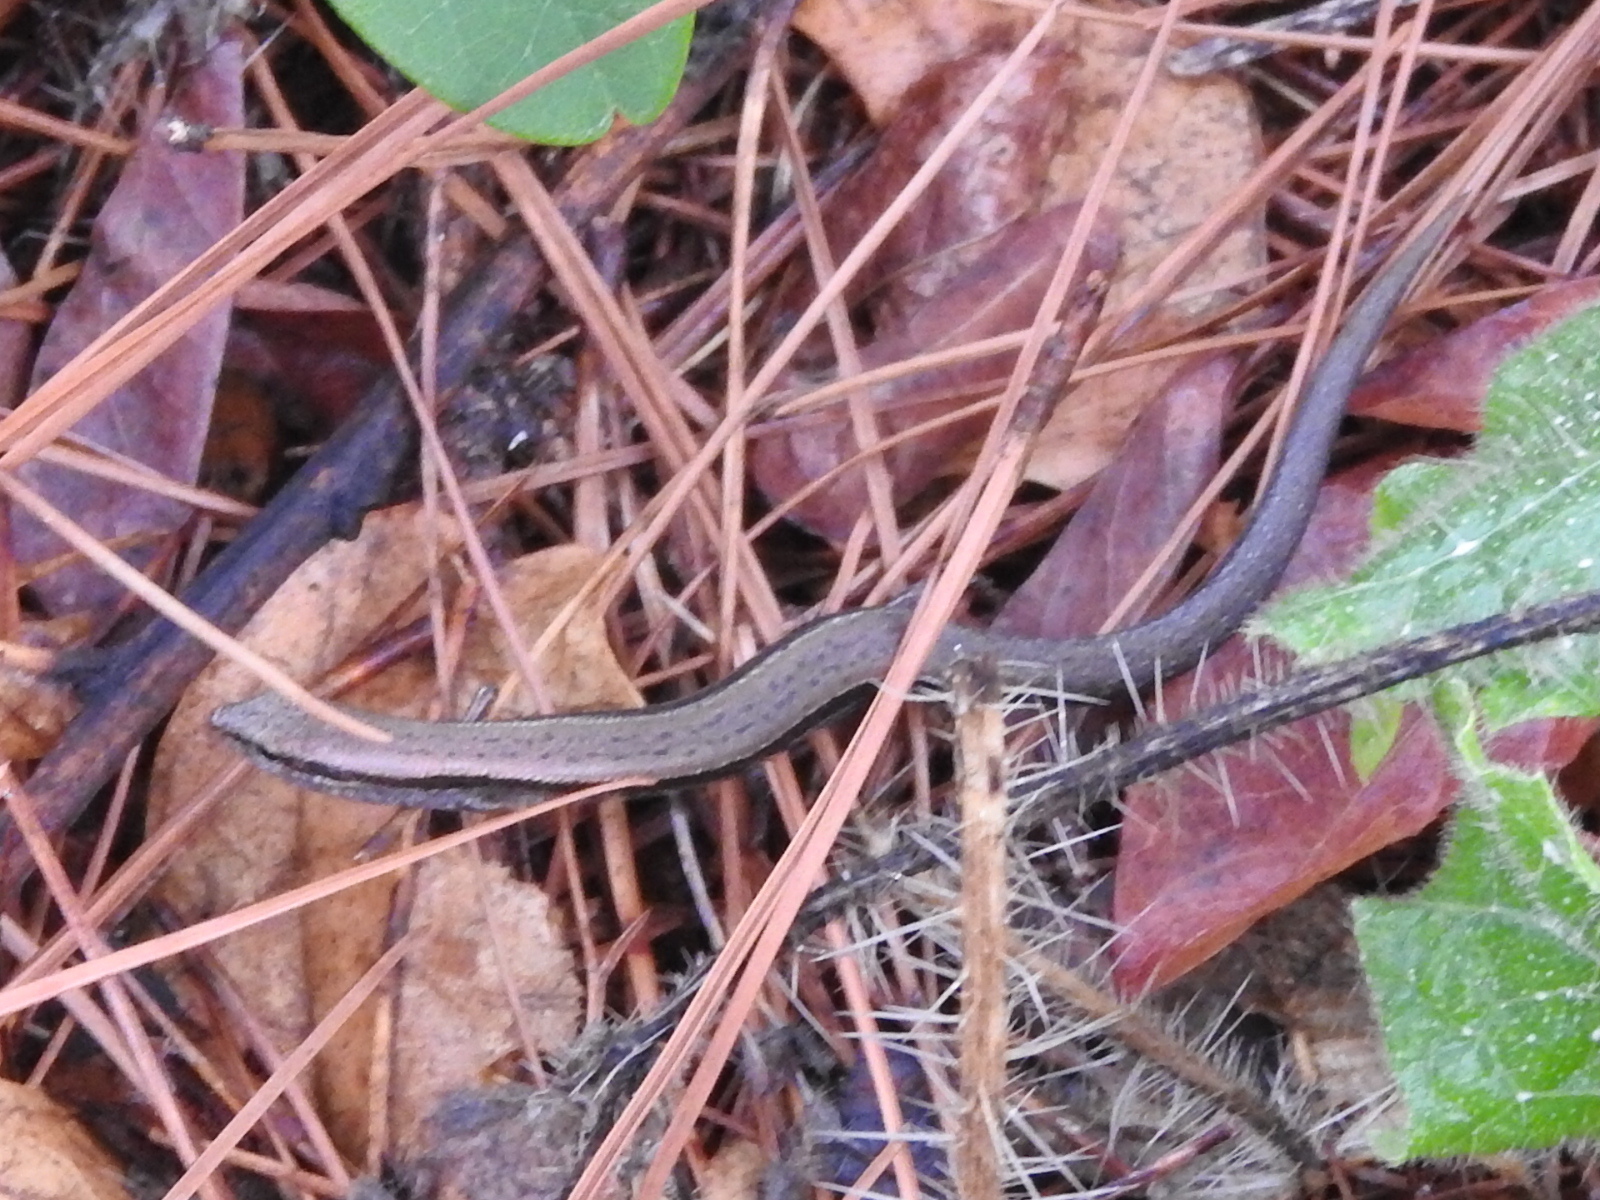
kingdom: Animalia
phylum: Chordata
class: Squamata
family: Scincidae
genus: Scincella
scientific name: Scincella lateralis
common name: Ground skink
